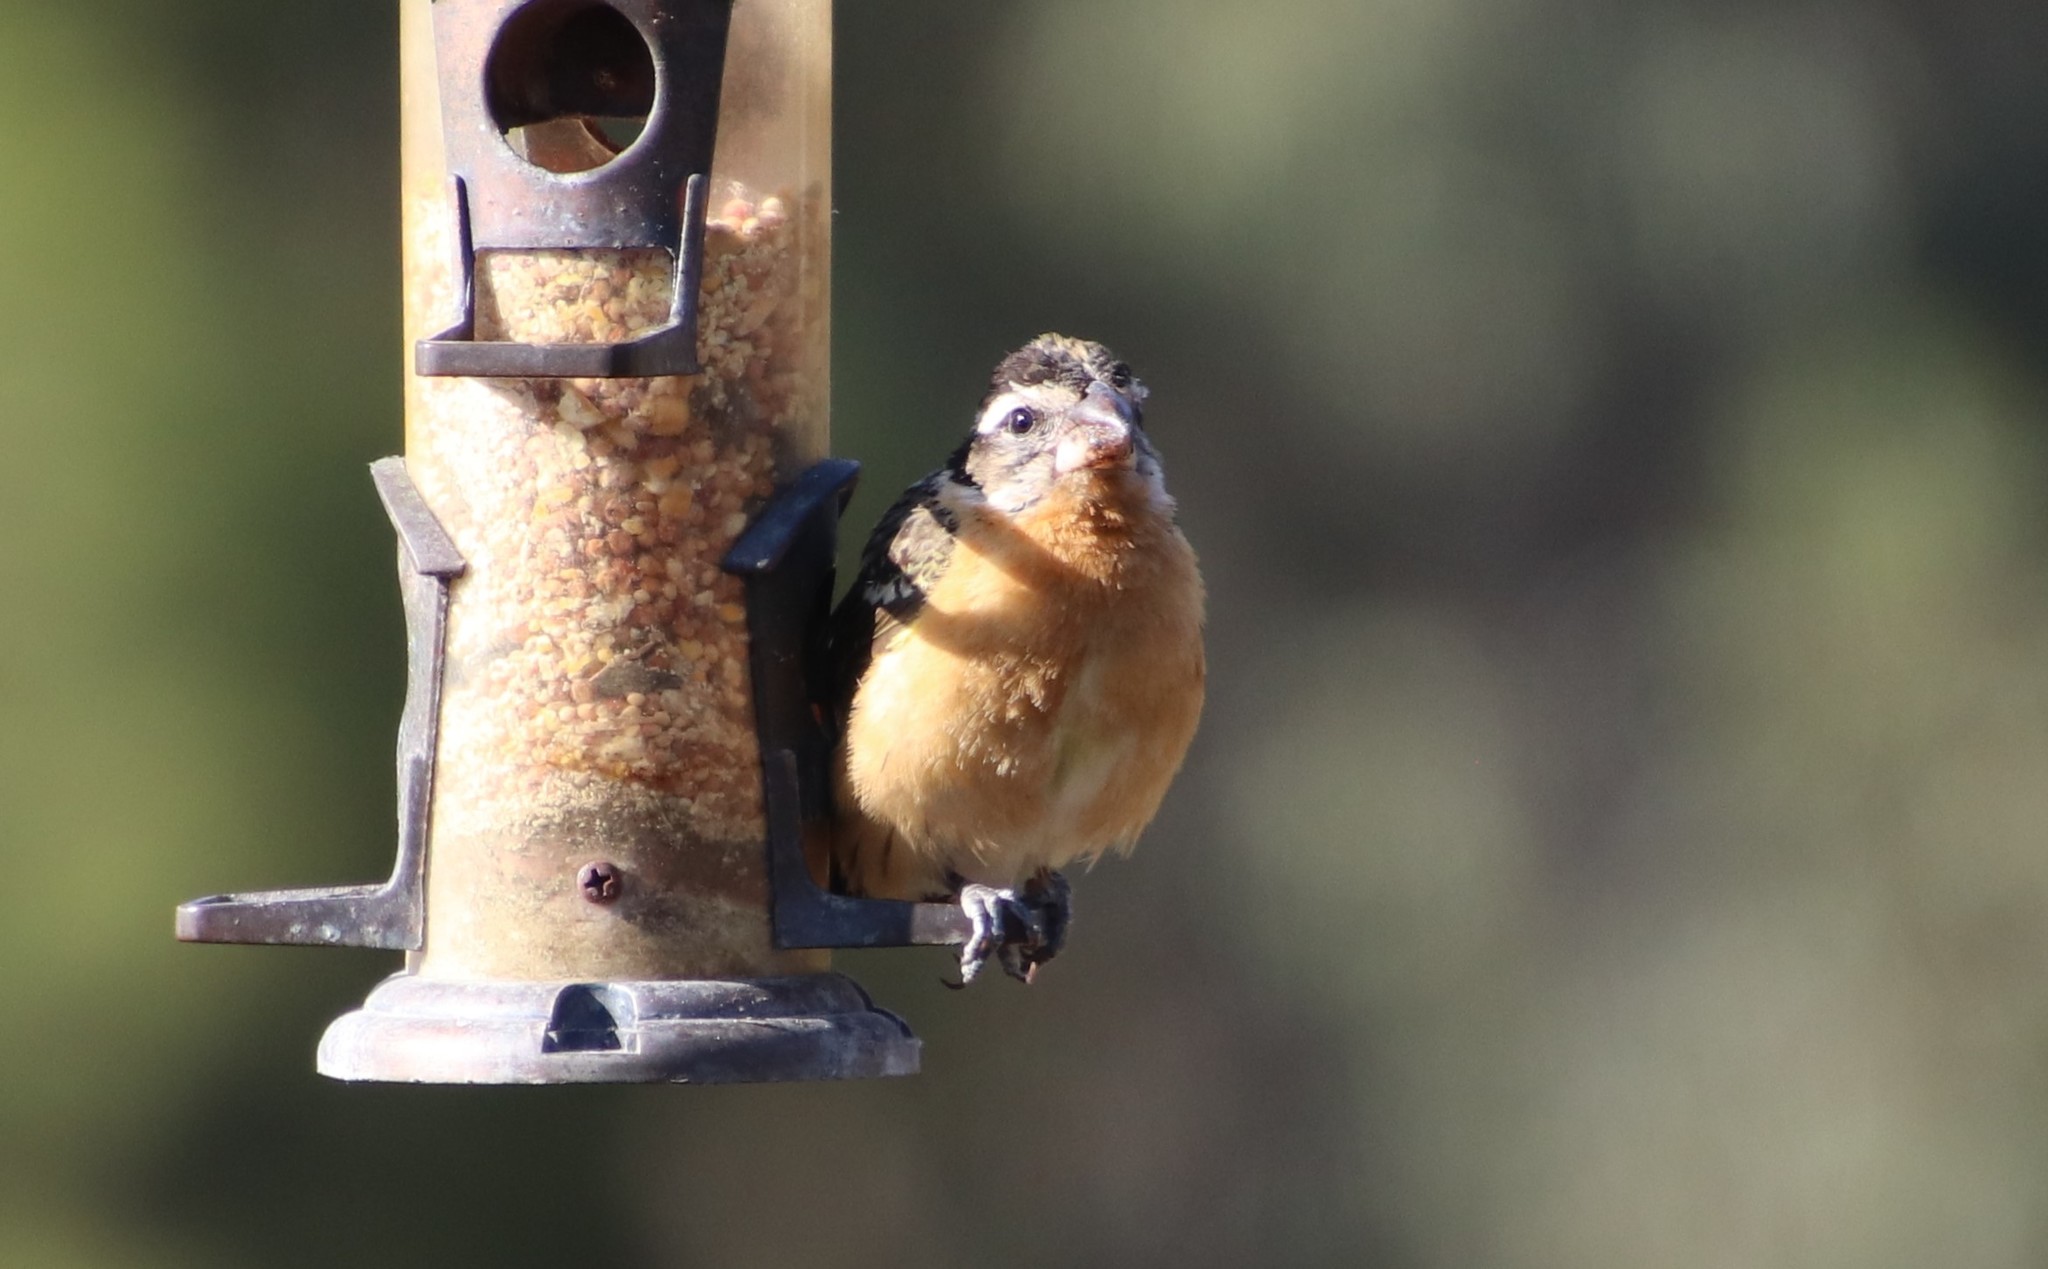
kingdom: Animalia
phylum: Chordata
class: Aves
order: Passeriformes
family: Cardinalidae
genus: Pheucticus
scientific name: Pheucticus melanocephalus
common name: Black-headed grosbeak
